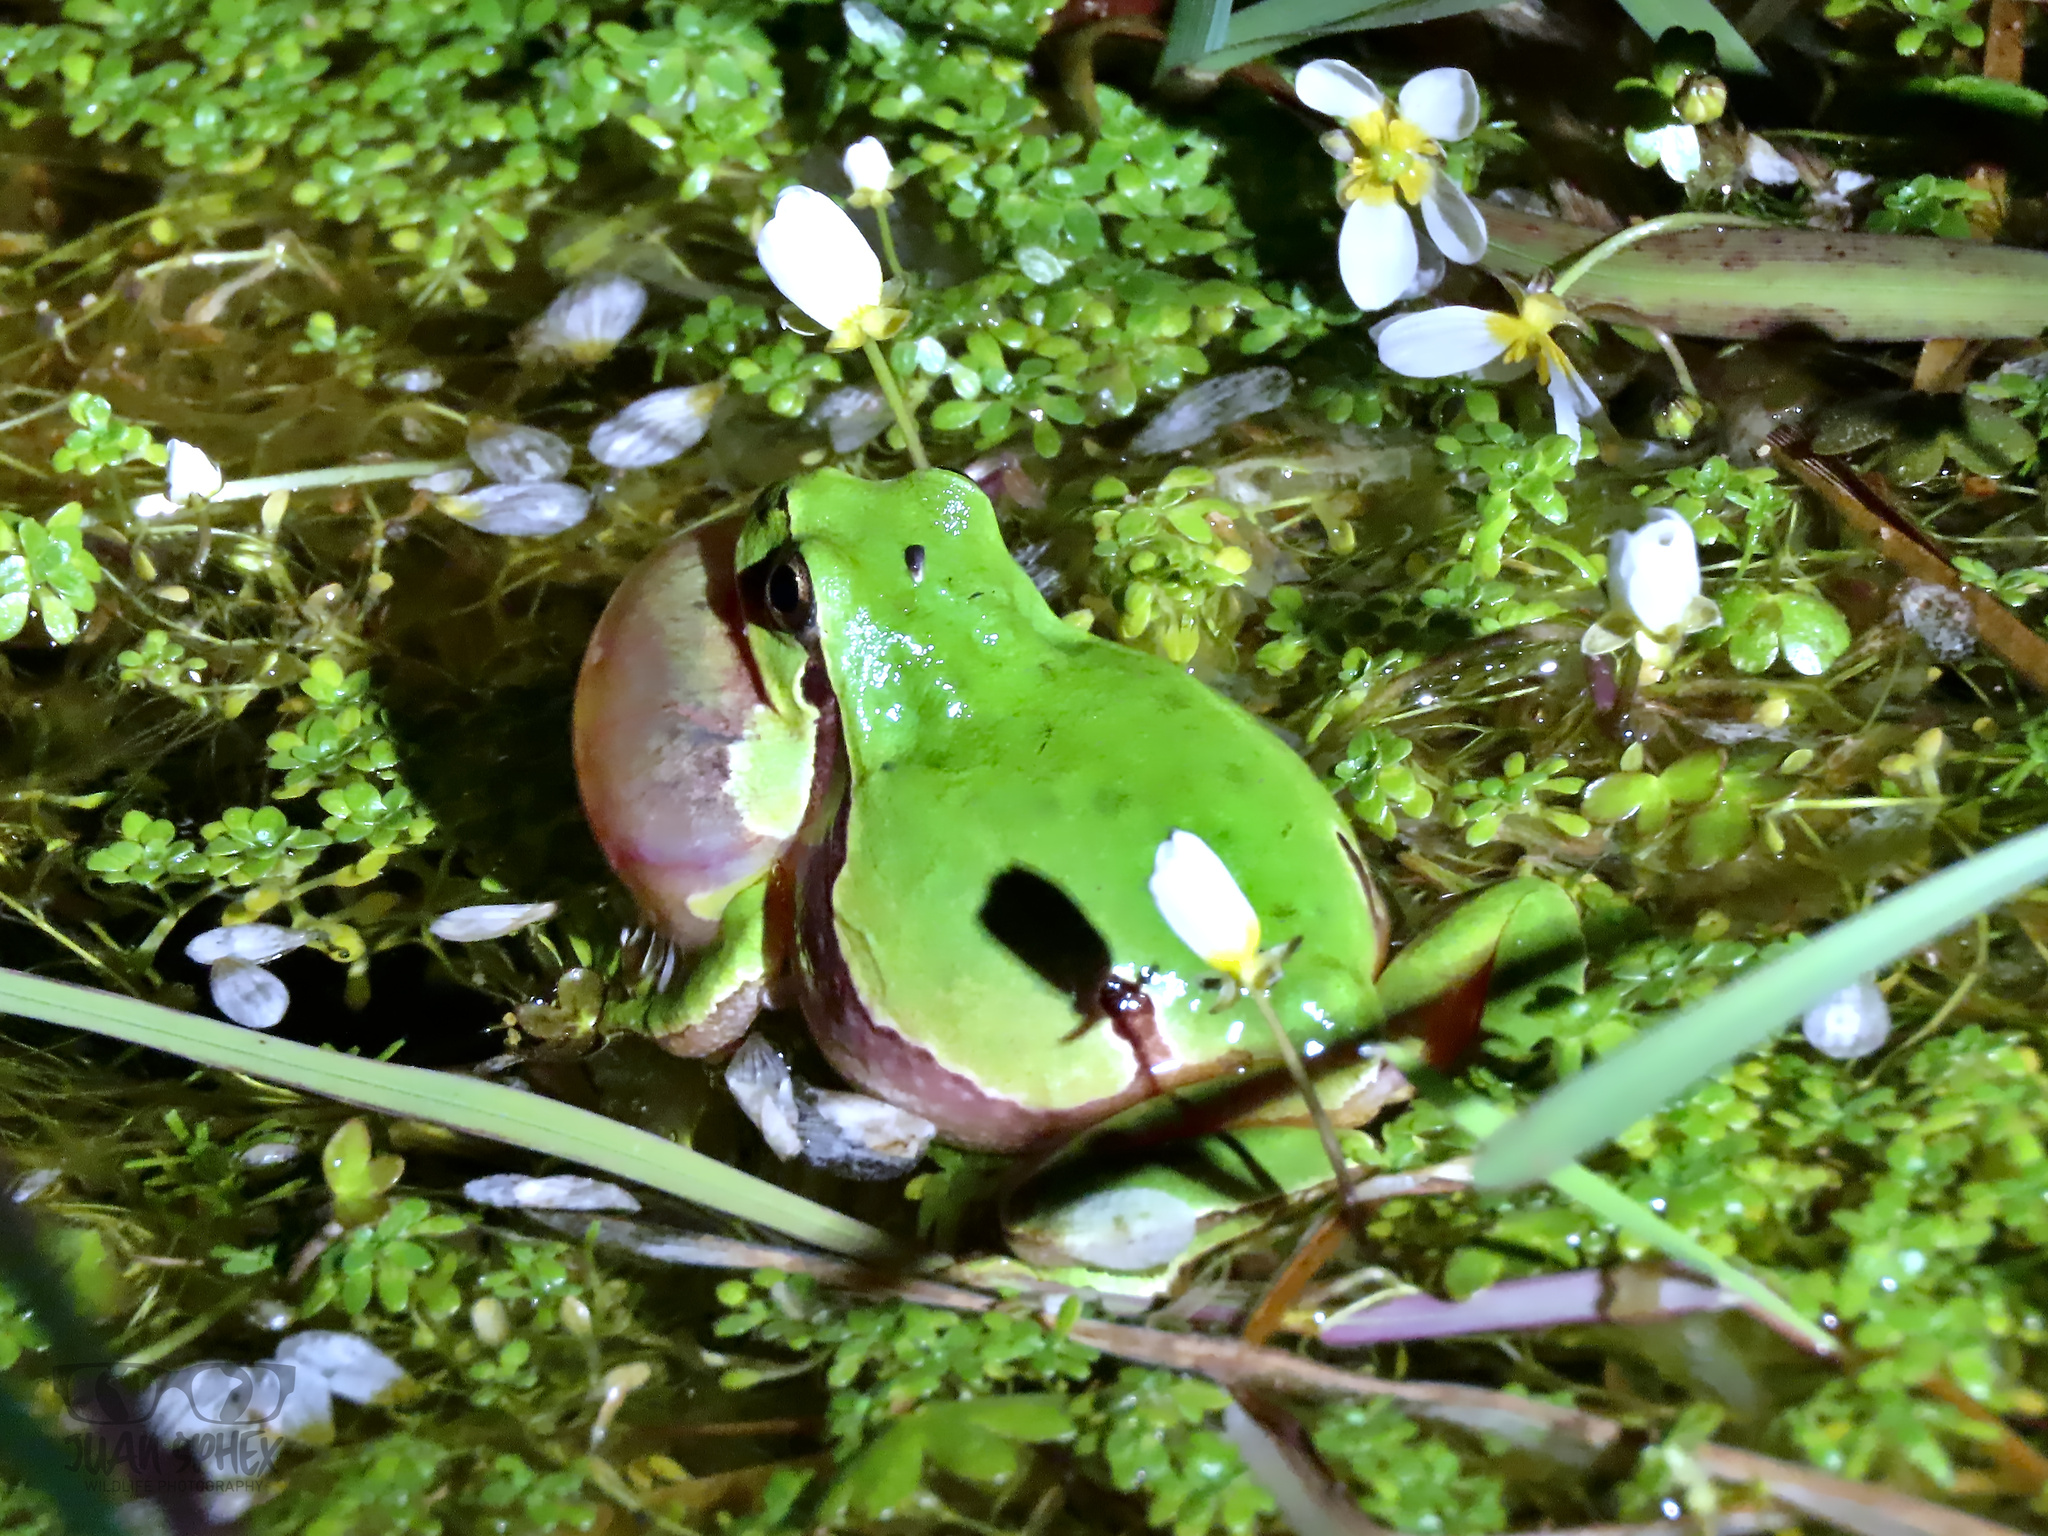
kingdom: Animalia
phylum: Chordata
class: Amphibia
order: Anura
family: Hylidae
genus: Hyla
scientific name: Hyla molleri
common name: Iberian tree frog
